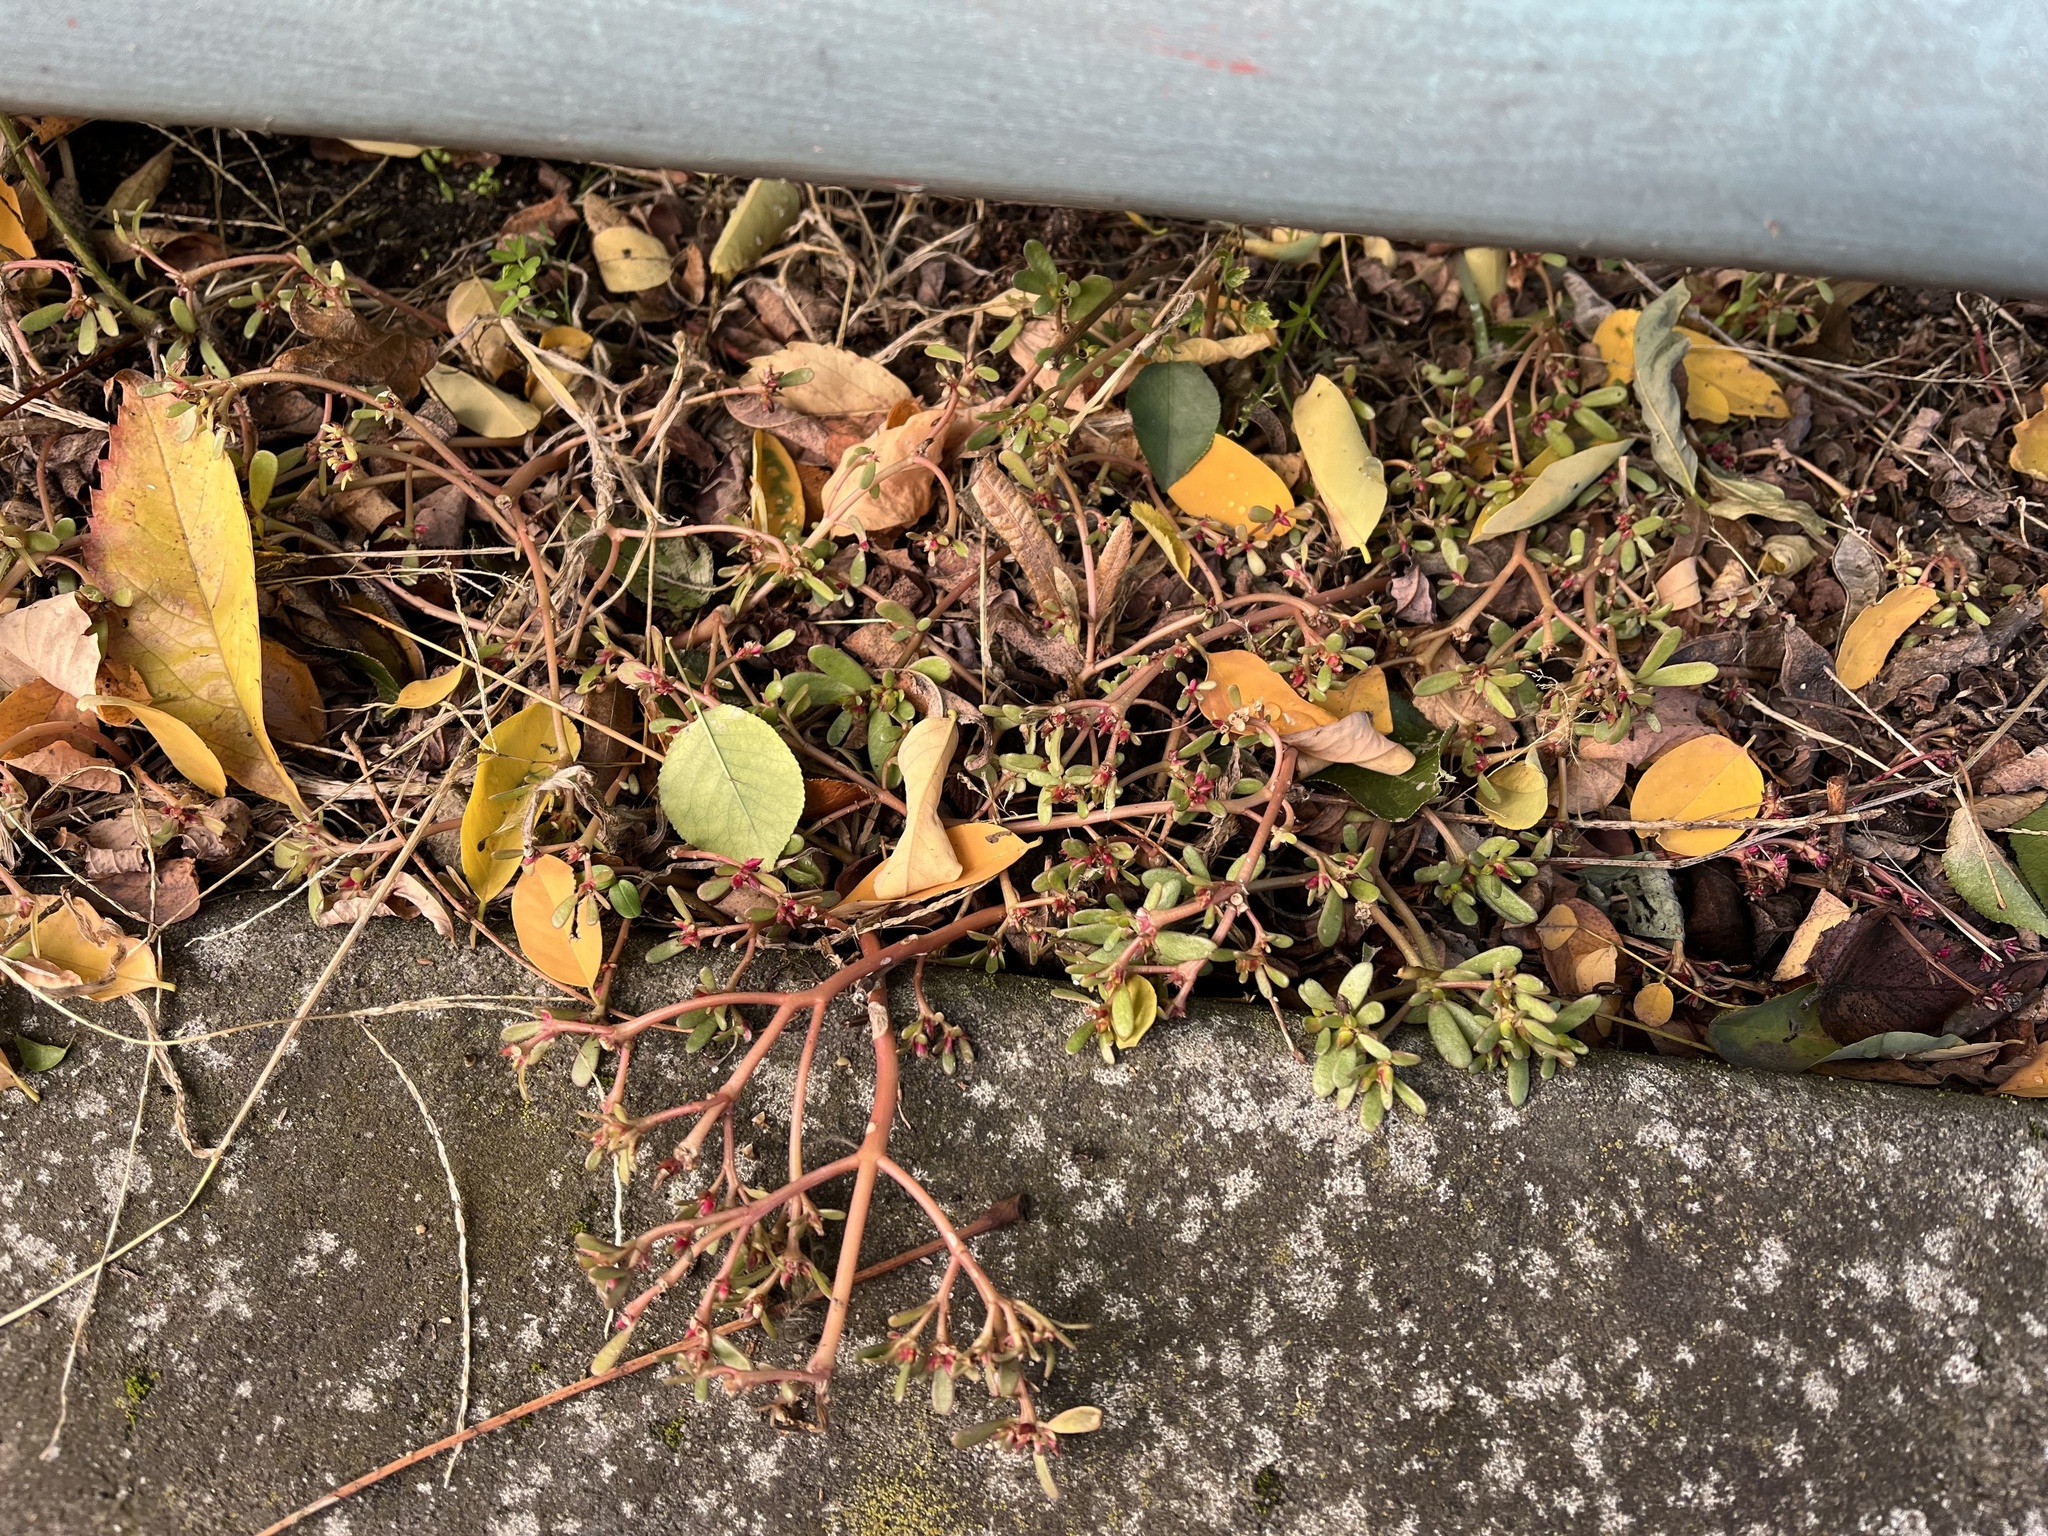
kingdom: Plantae
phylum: Tracheophyta
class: Magnoliopsida
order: Caryophyllales
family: Portulacaceae
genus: Portulaca
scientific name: Portulaca oleracea
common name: Common purslane
